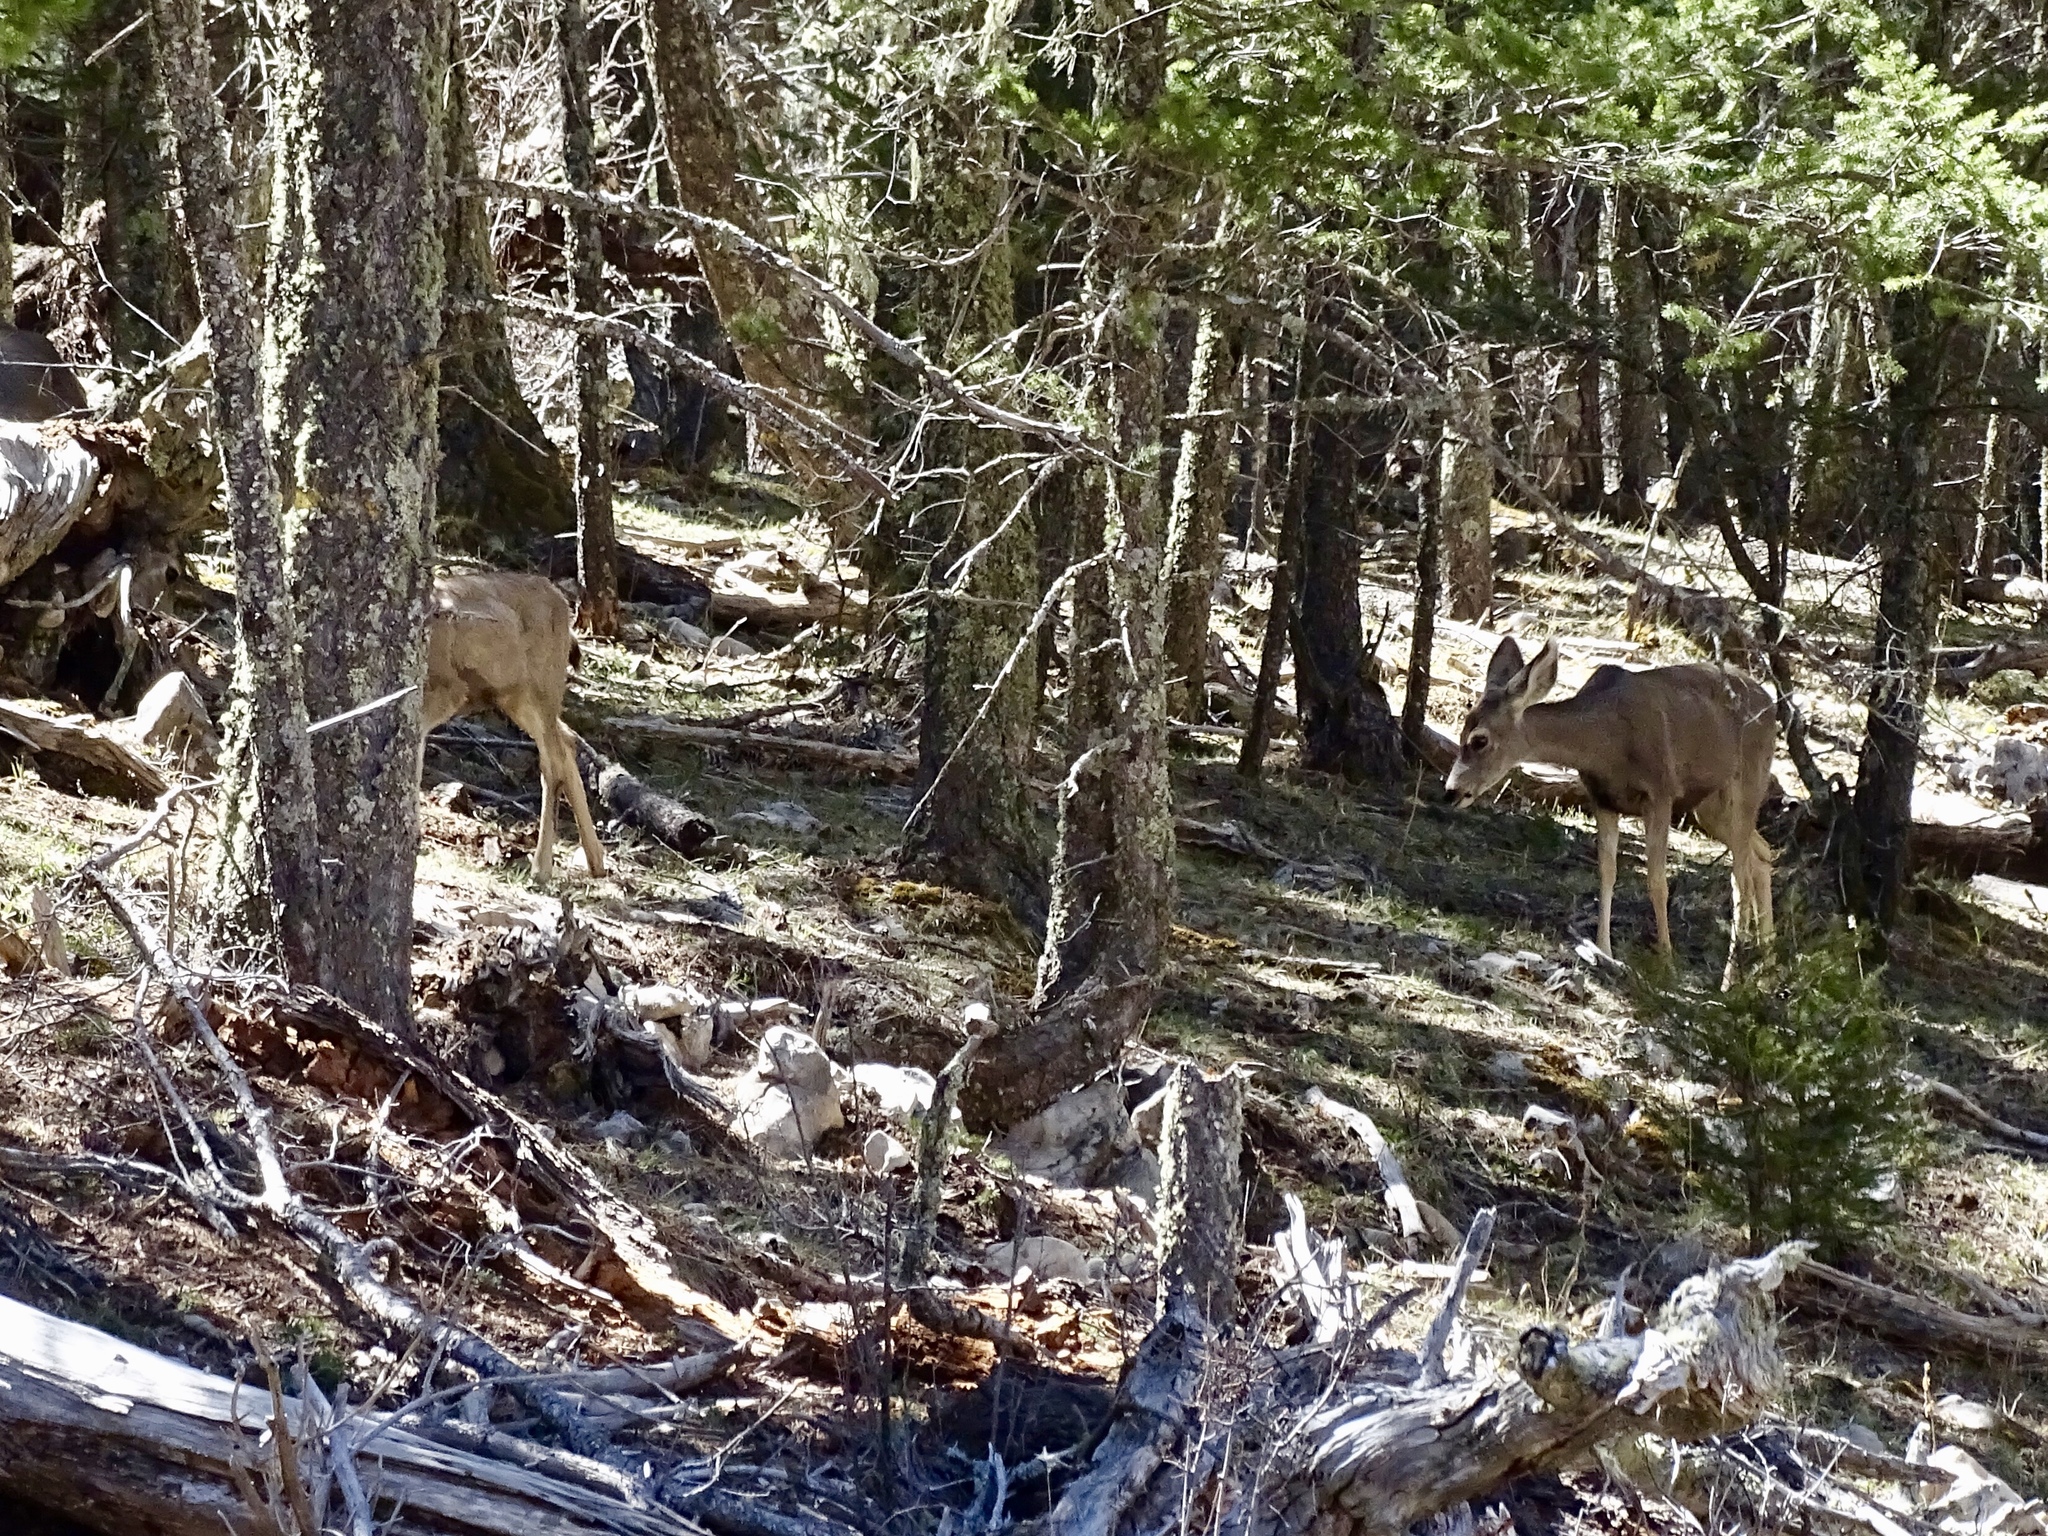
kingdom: Animalia
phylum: Chordata
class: Mammalia
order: Artiodactyla
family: Cervidae
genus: Odocoileus
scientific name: Odocoileus hemionus
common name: Mule deer
